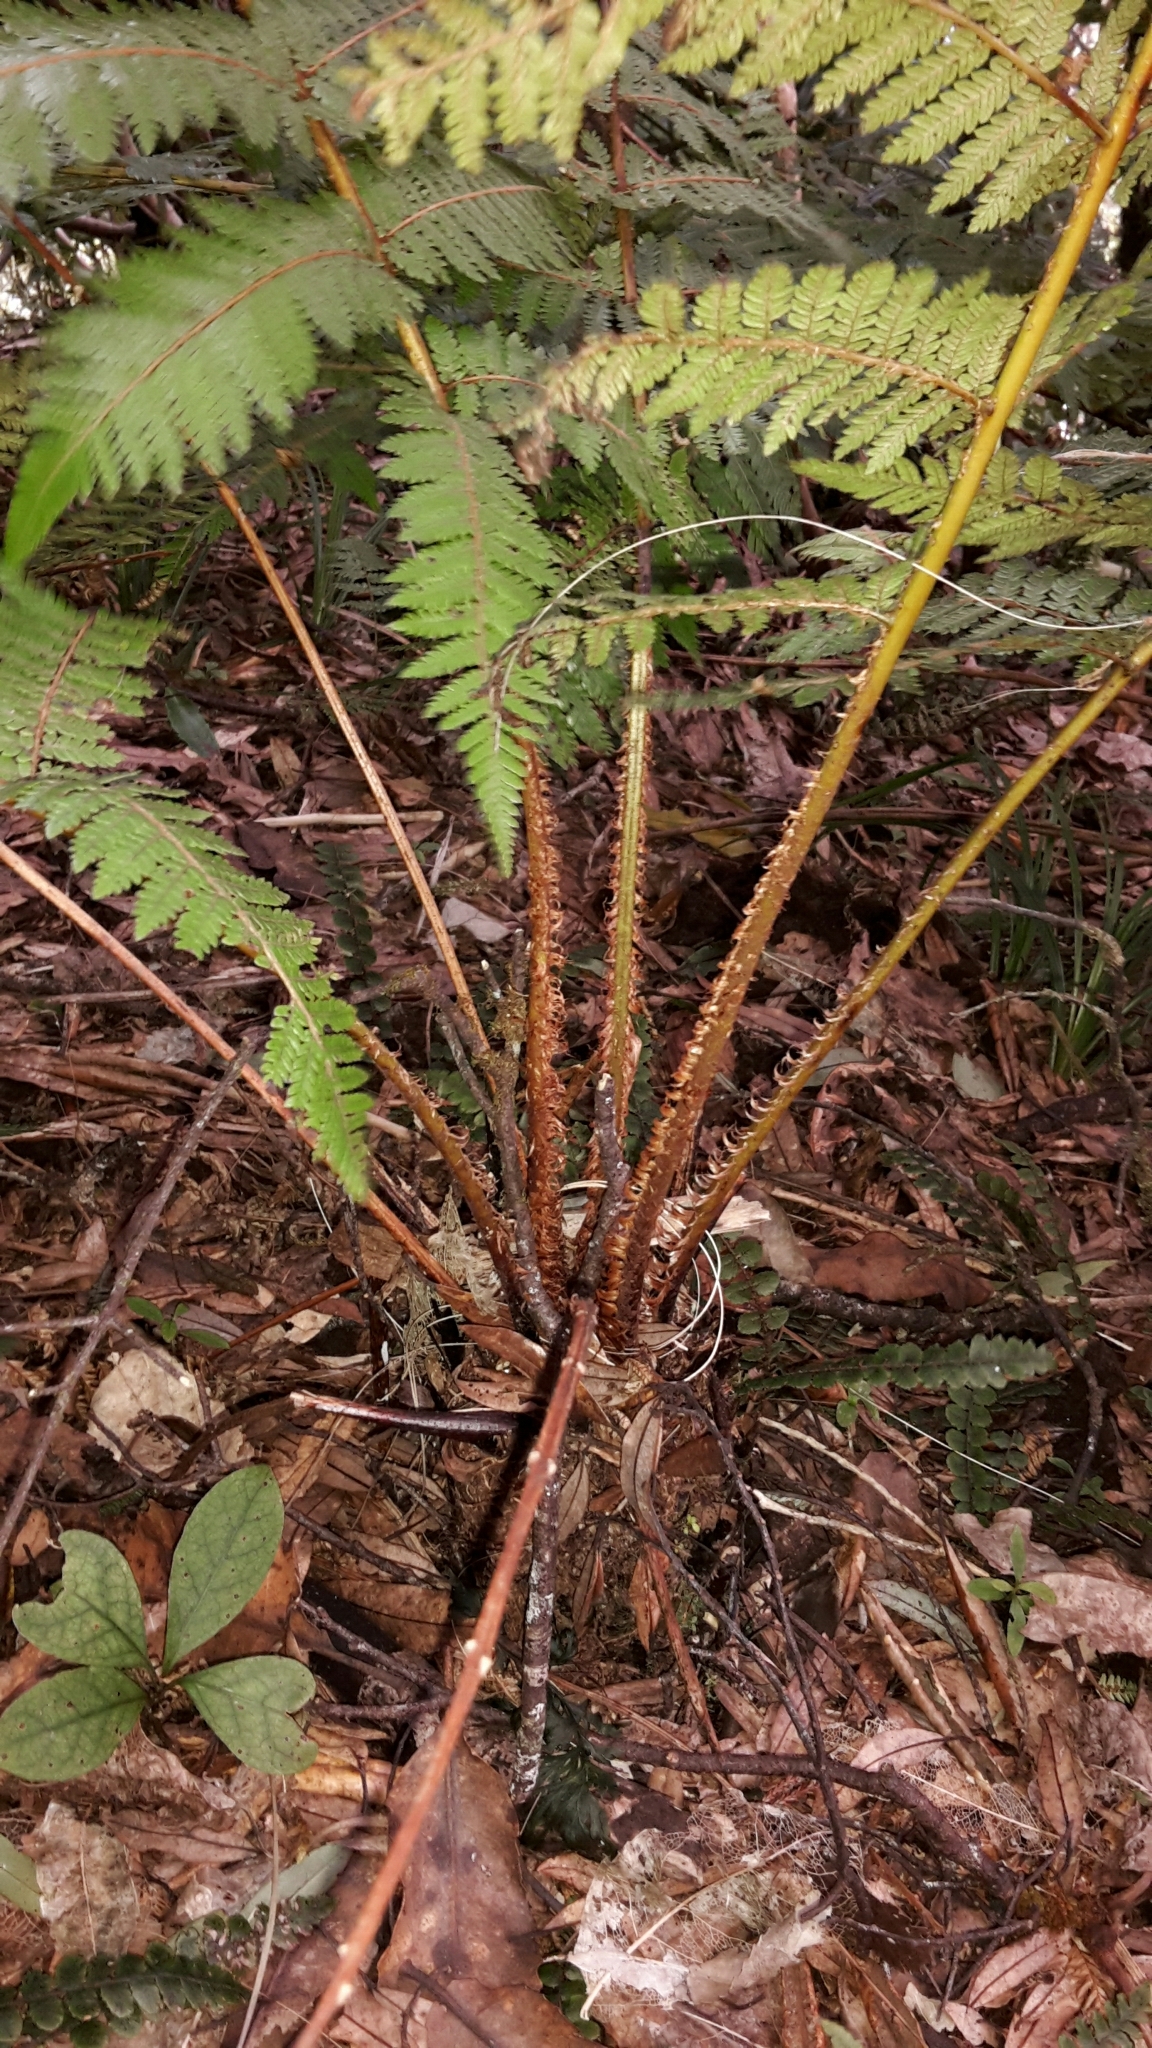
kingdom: Plantae
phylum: Tracheophyta
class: Polypodiopsida
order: Cyatheales
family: Cyatheaceae
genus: Alsophila
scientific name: Alsophila smithii
